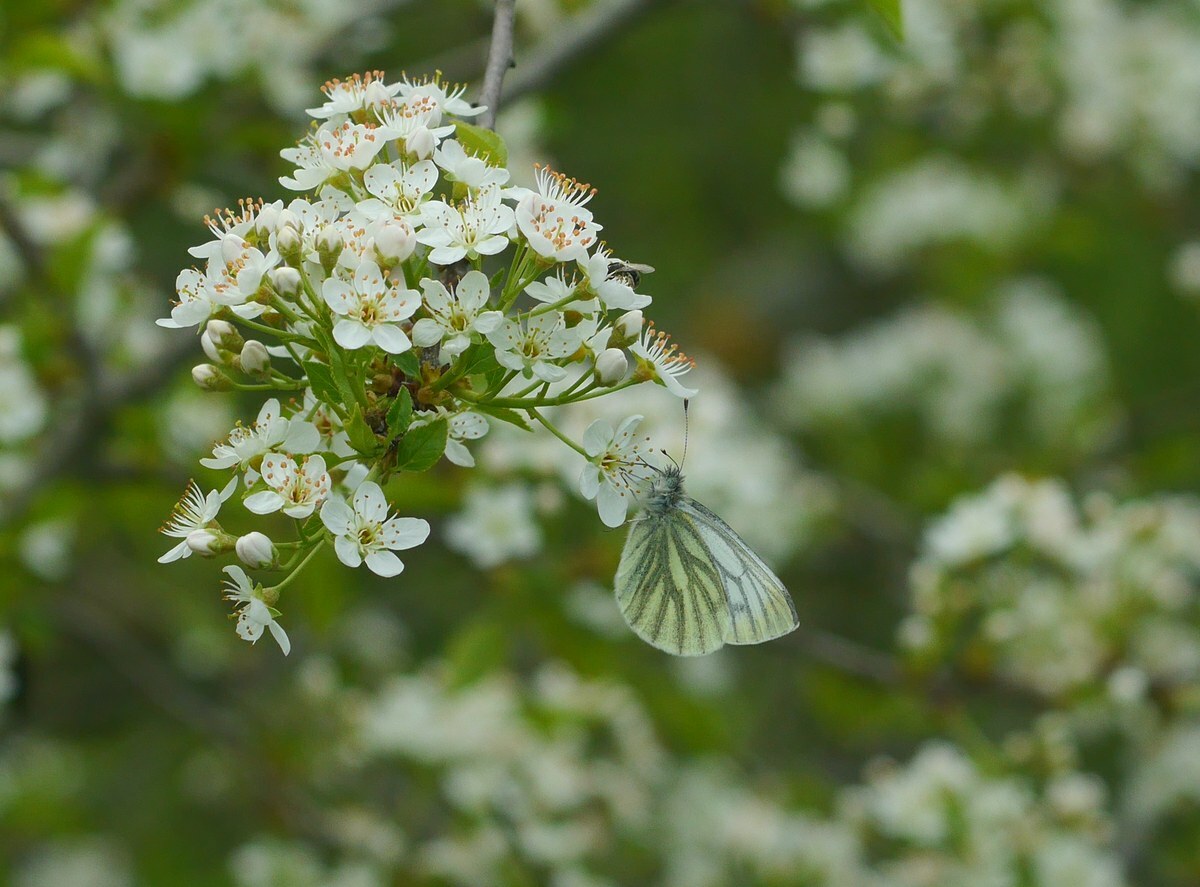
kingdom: Animalia
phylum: Arthropoda
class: Insecta
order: Lepidoptera
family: Pieridae
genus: Pieris
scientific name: Pieris napi
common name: Green-veined white
